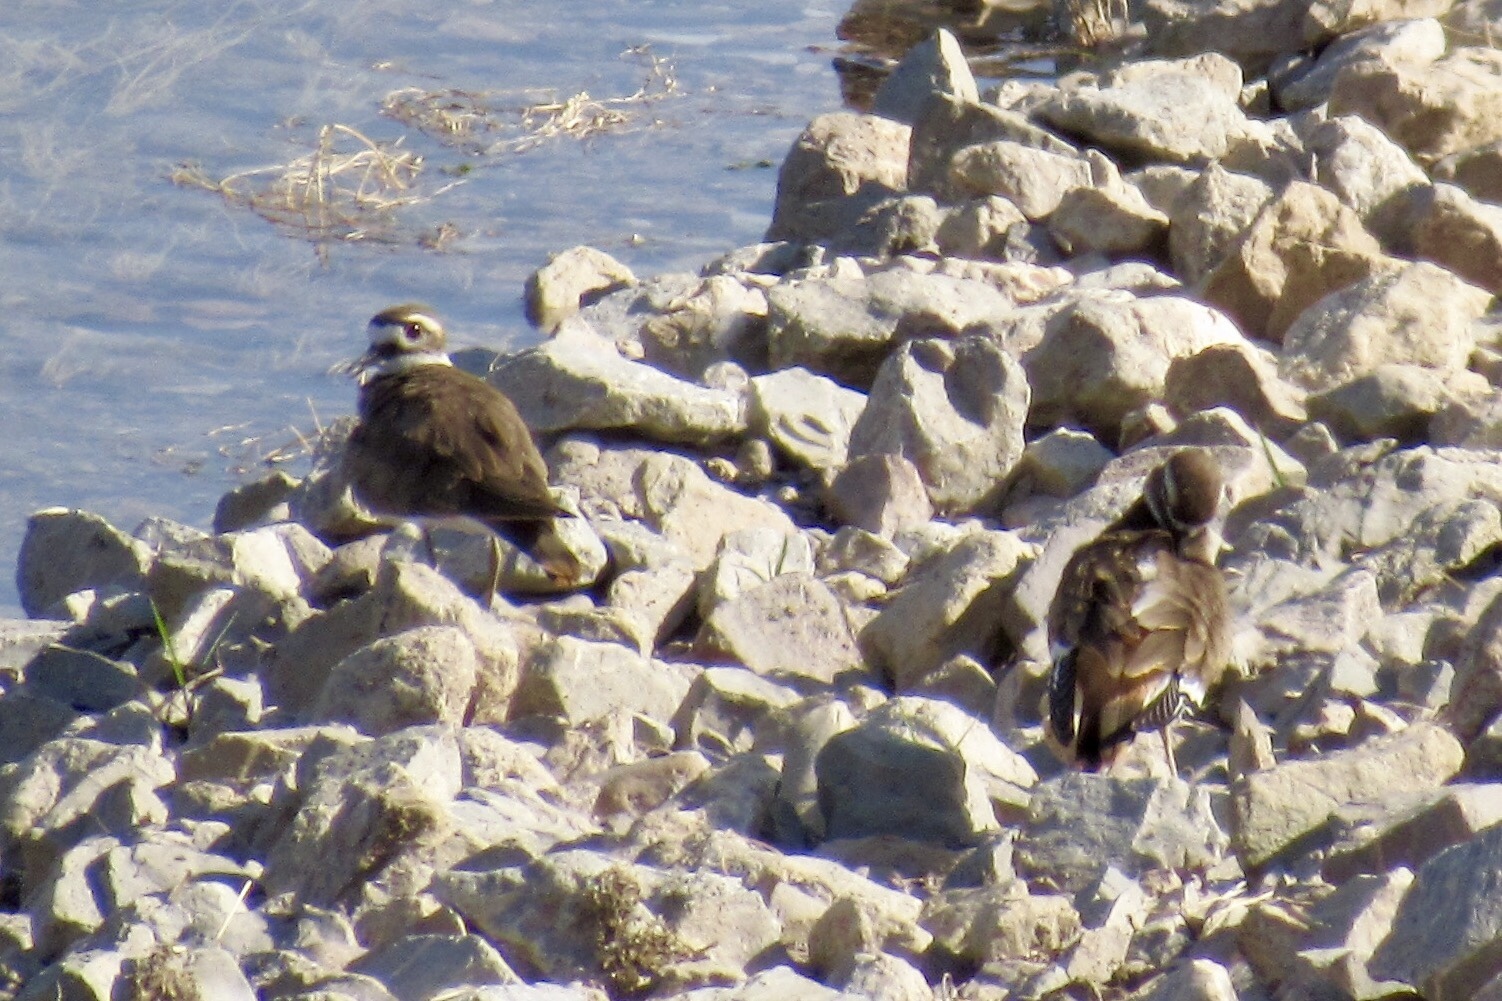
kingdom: Animalia
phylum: Chordata
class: Aves
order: Charadriiformes
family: Charadriidae
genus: Charadrius
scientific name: Charadrius vociferus
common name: Killdeer
